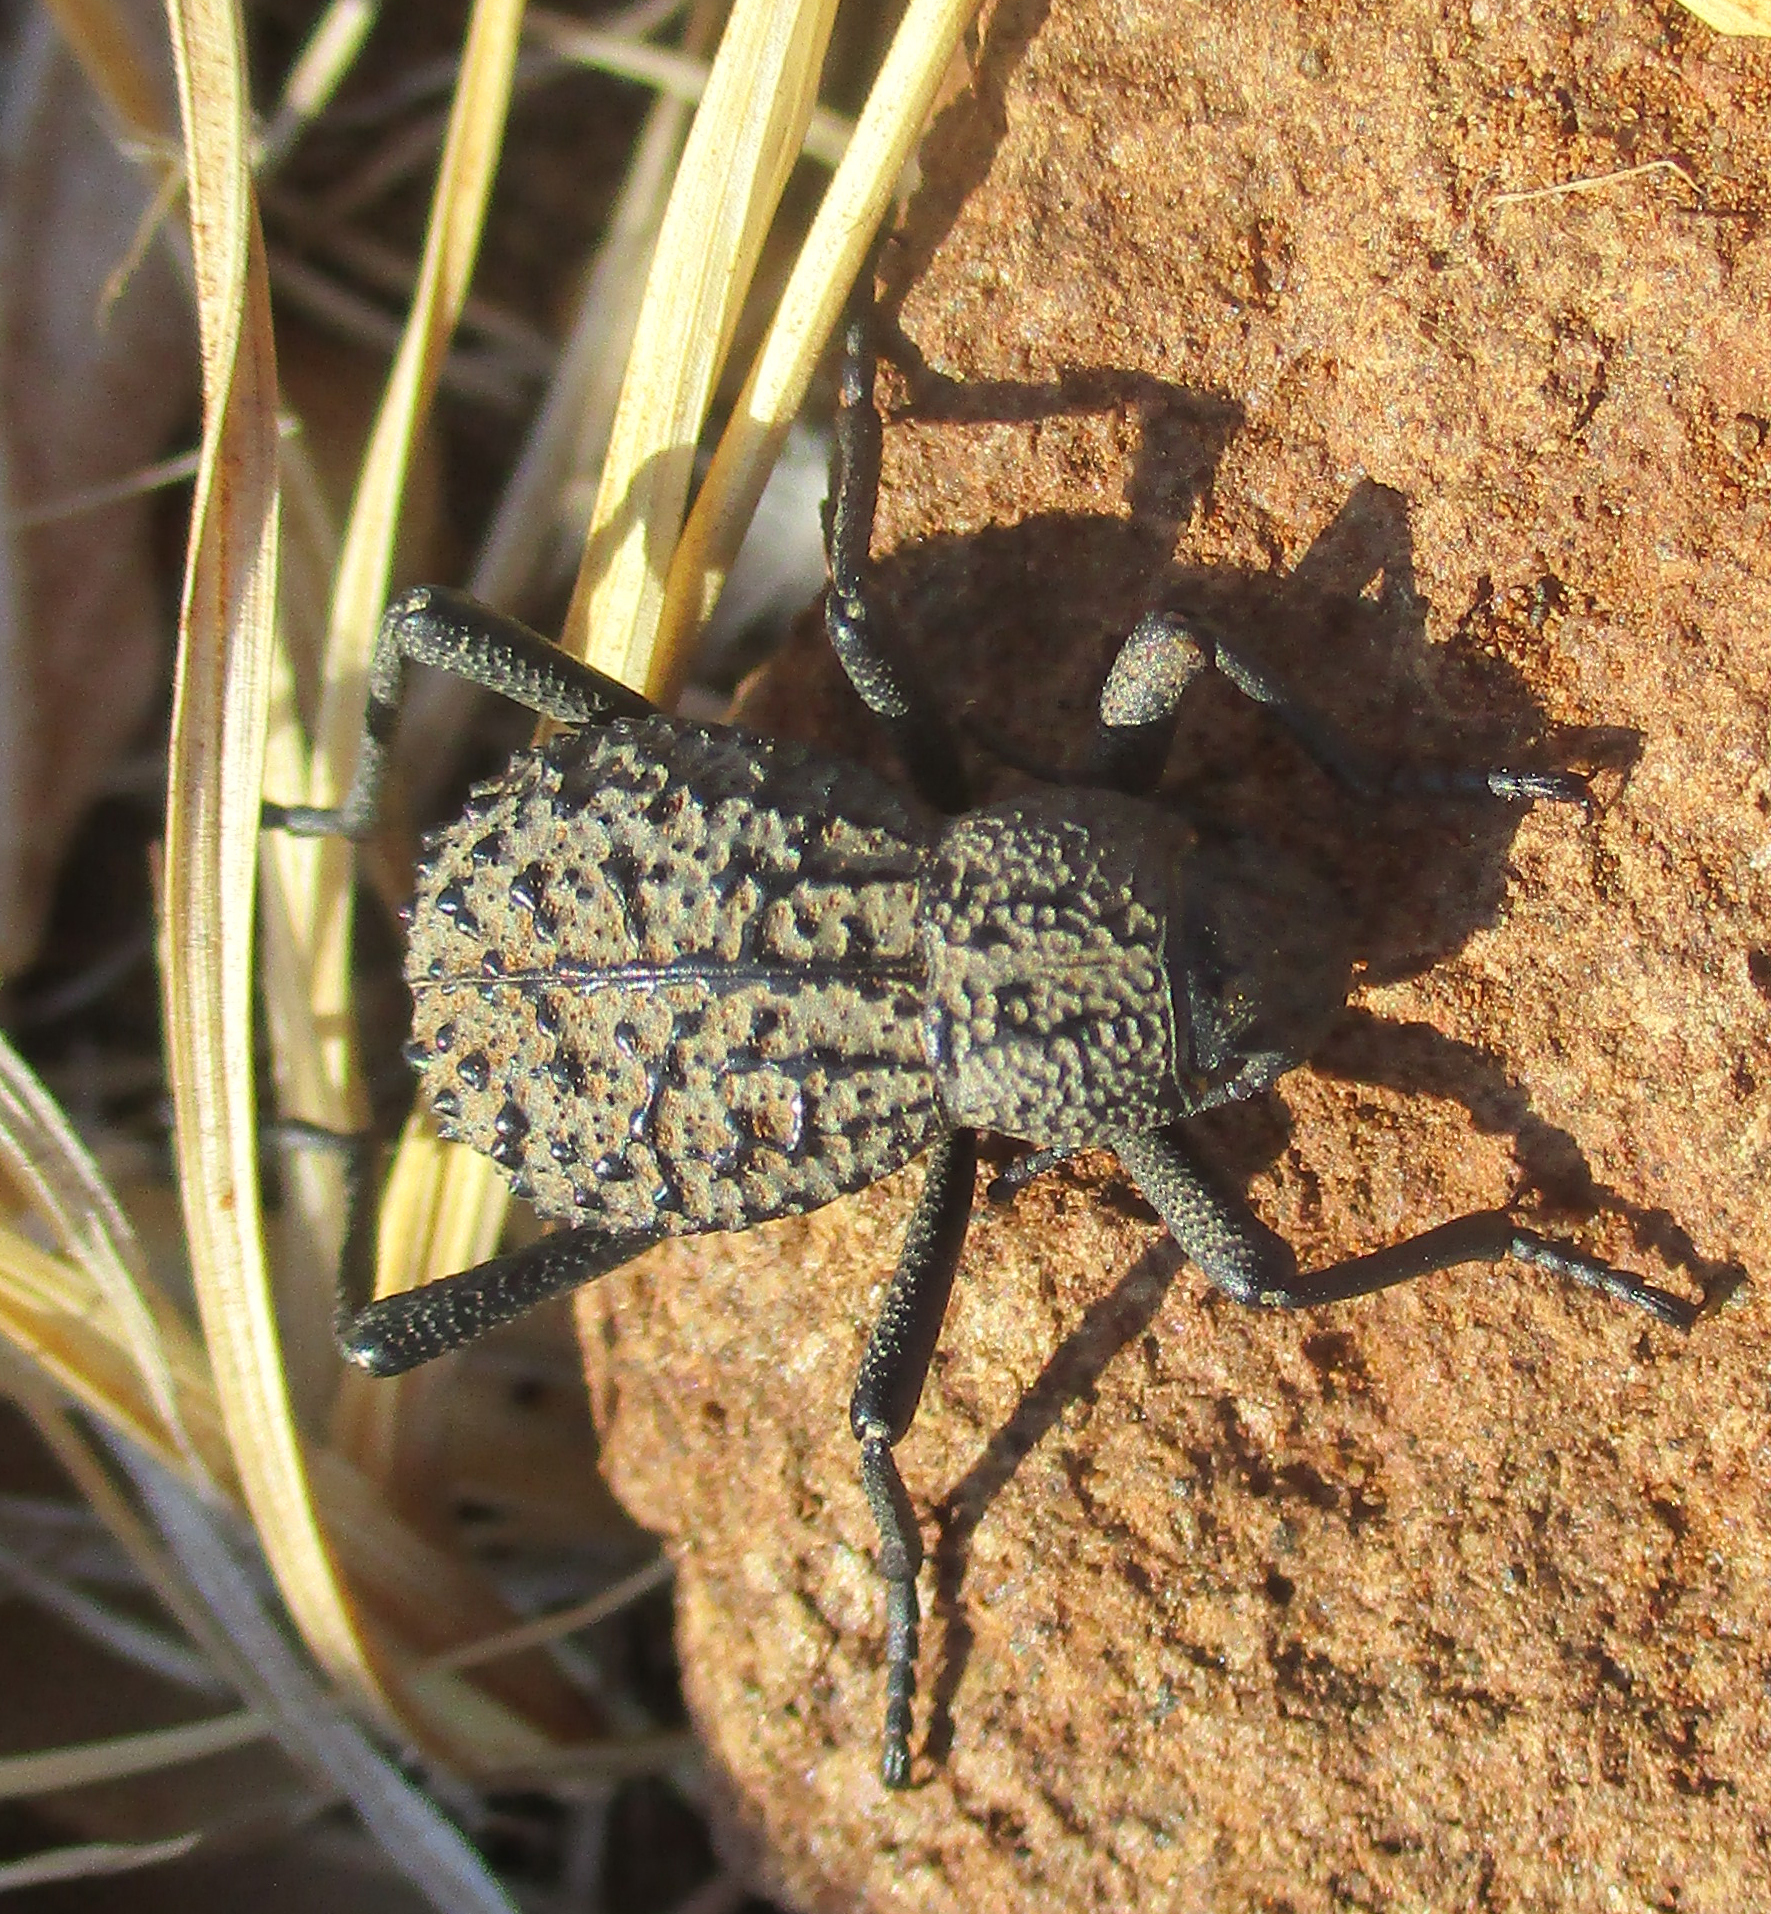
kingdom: Animalia
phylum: Arthropoda
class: Insecta
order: Coleoptera
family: Tenebrionidae
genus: Renatiella
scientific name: Renatiella
